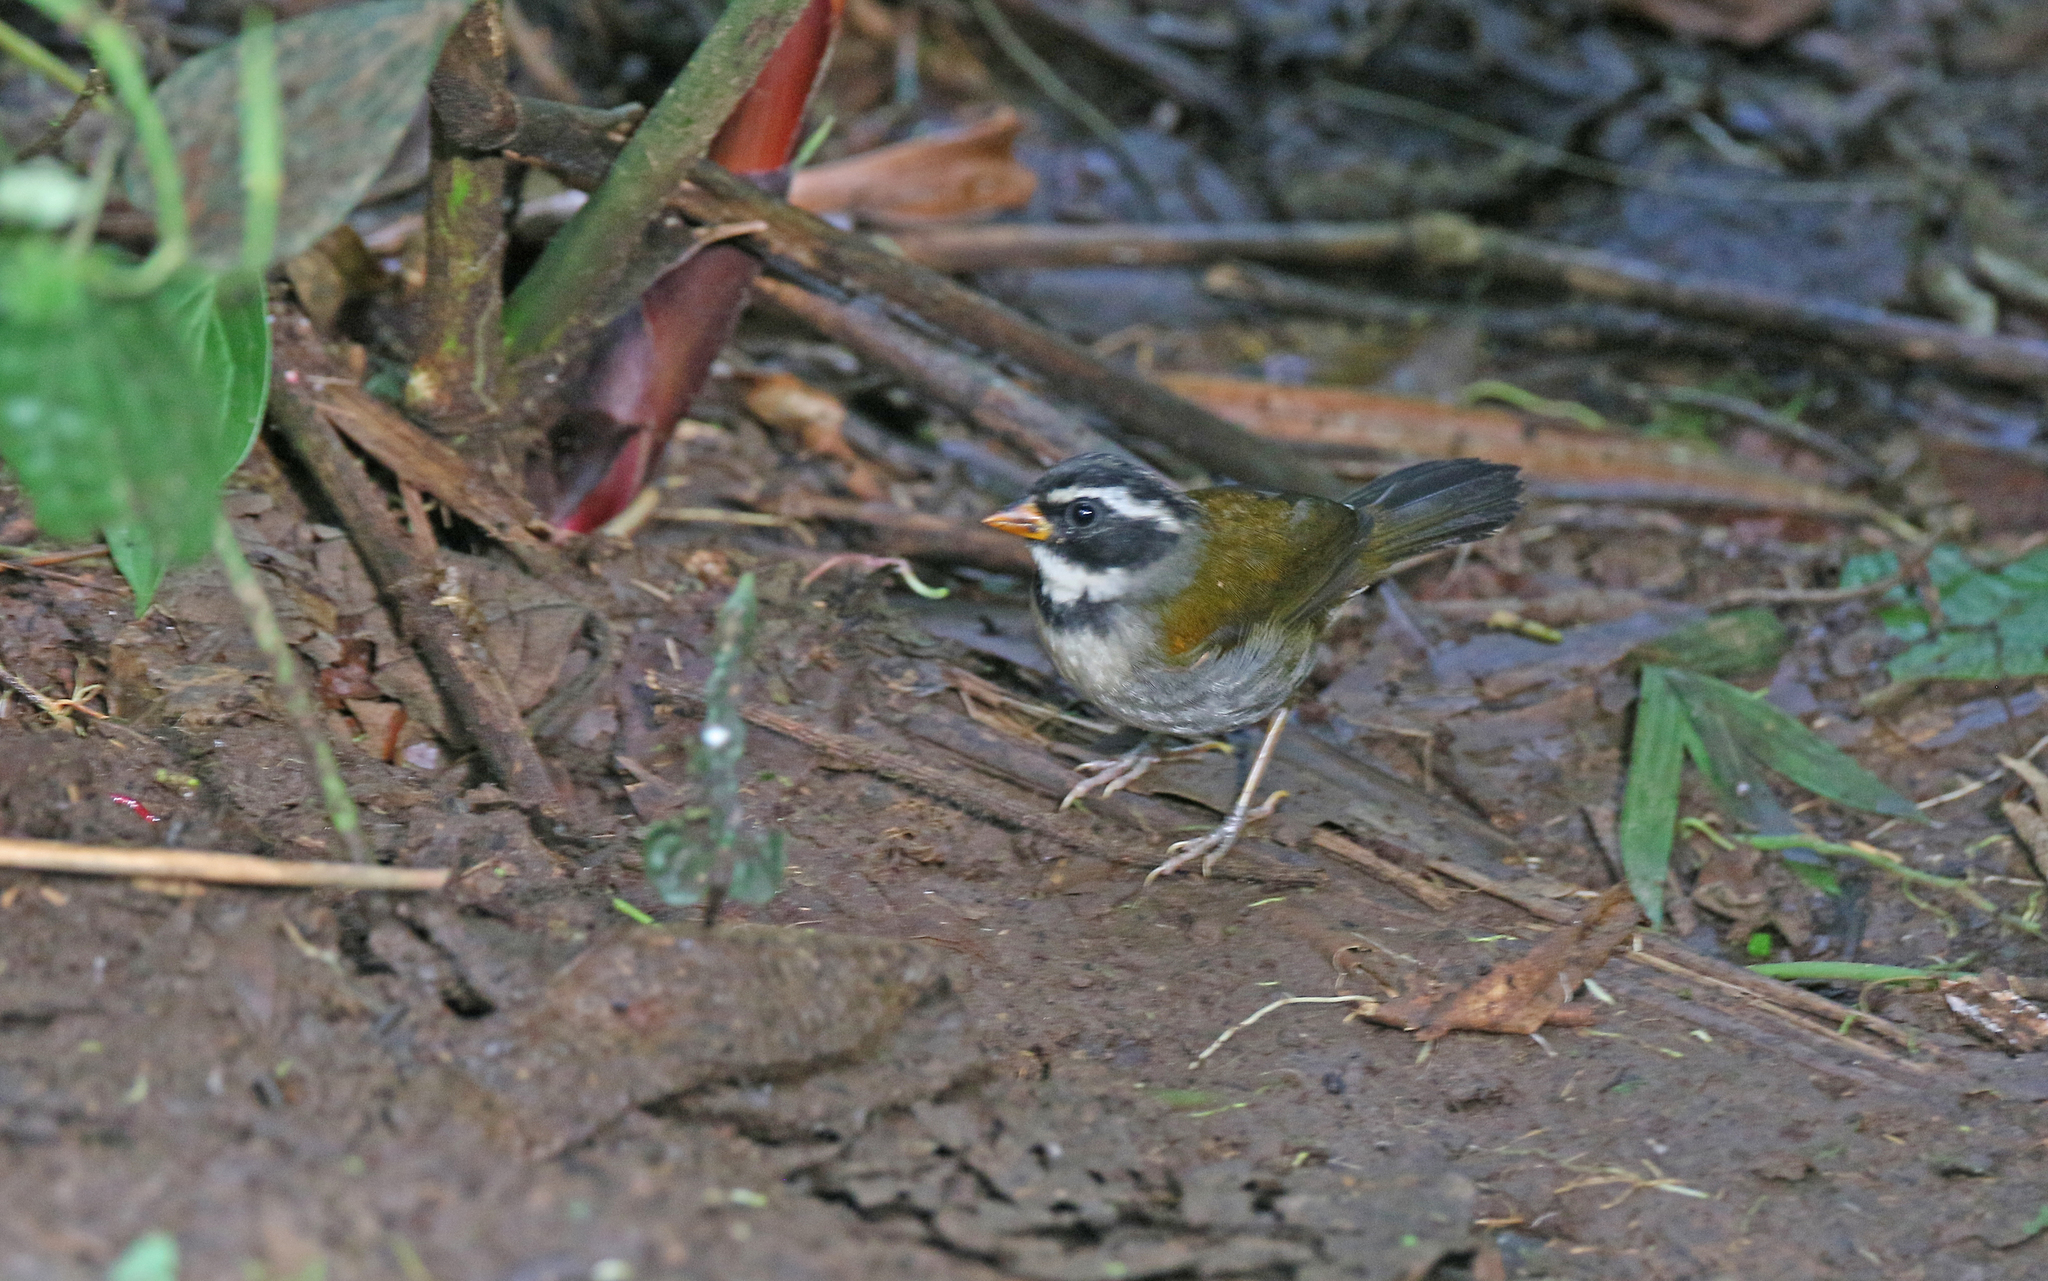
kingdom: Animalia
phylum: Chordata
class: Aves
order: Passeriformes
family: Passerellidae
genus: Arremon
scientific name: Arremon aurantiirostris
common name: Orange-billed sparrow
